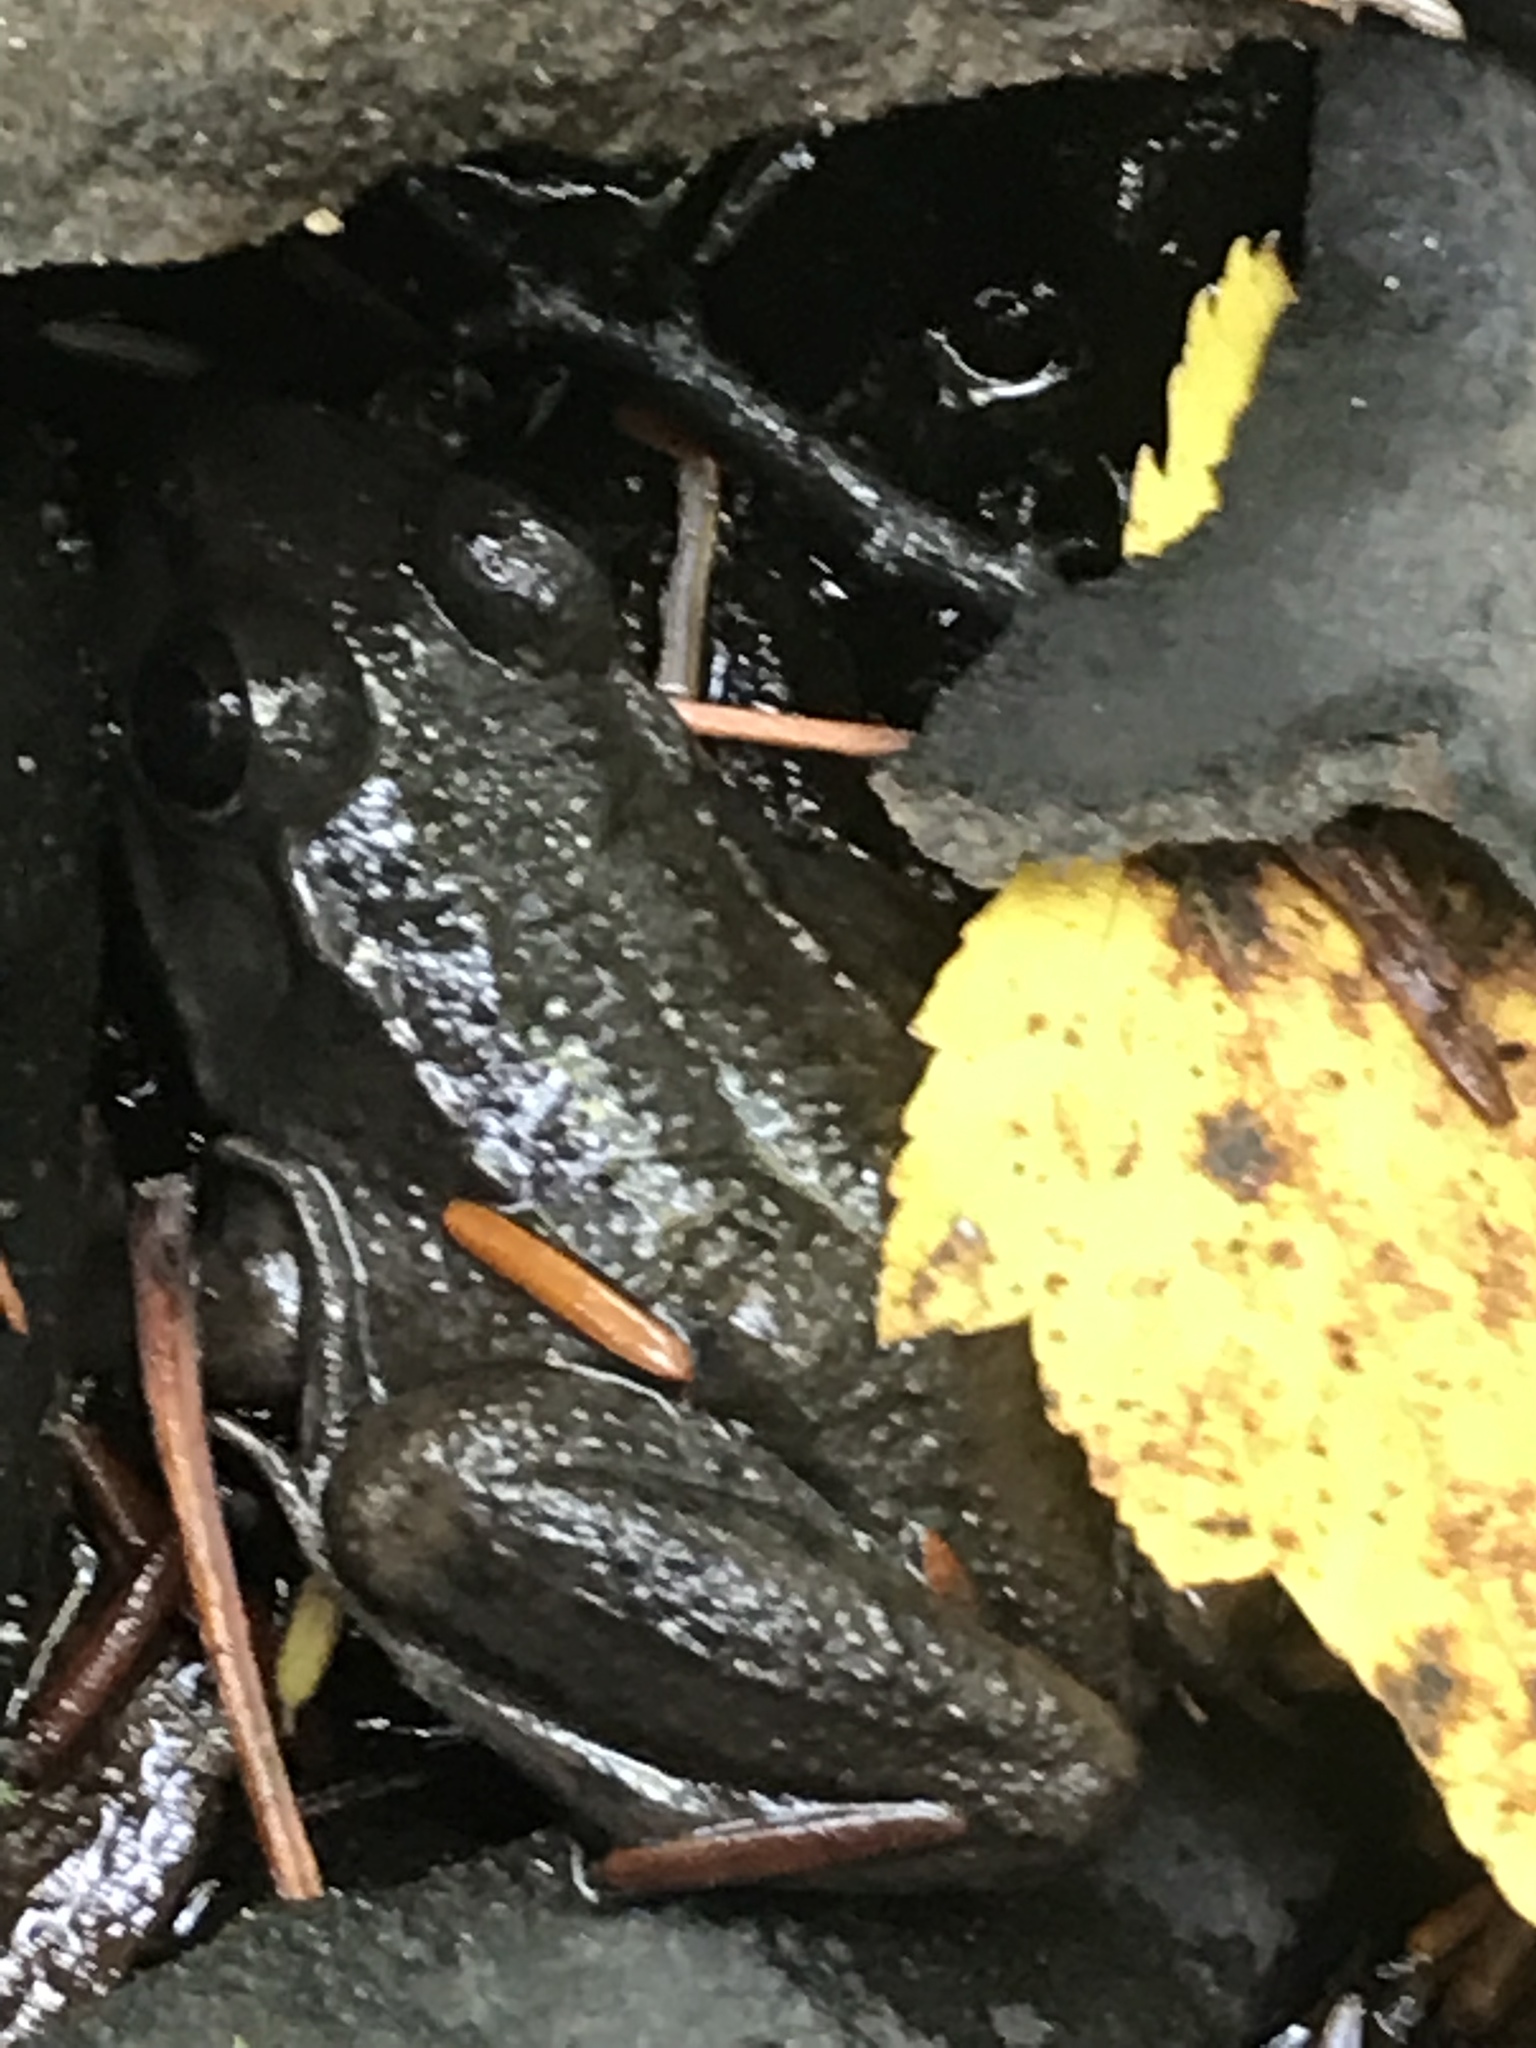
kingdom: Animalia
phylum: Chordata
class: Amphibia
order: Anura
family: Ranidae
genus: Lithobates
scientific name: Lithobates clamitans
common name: Green frog
